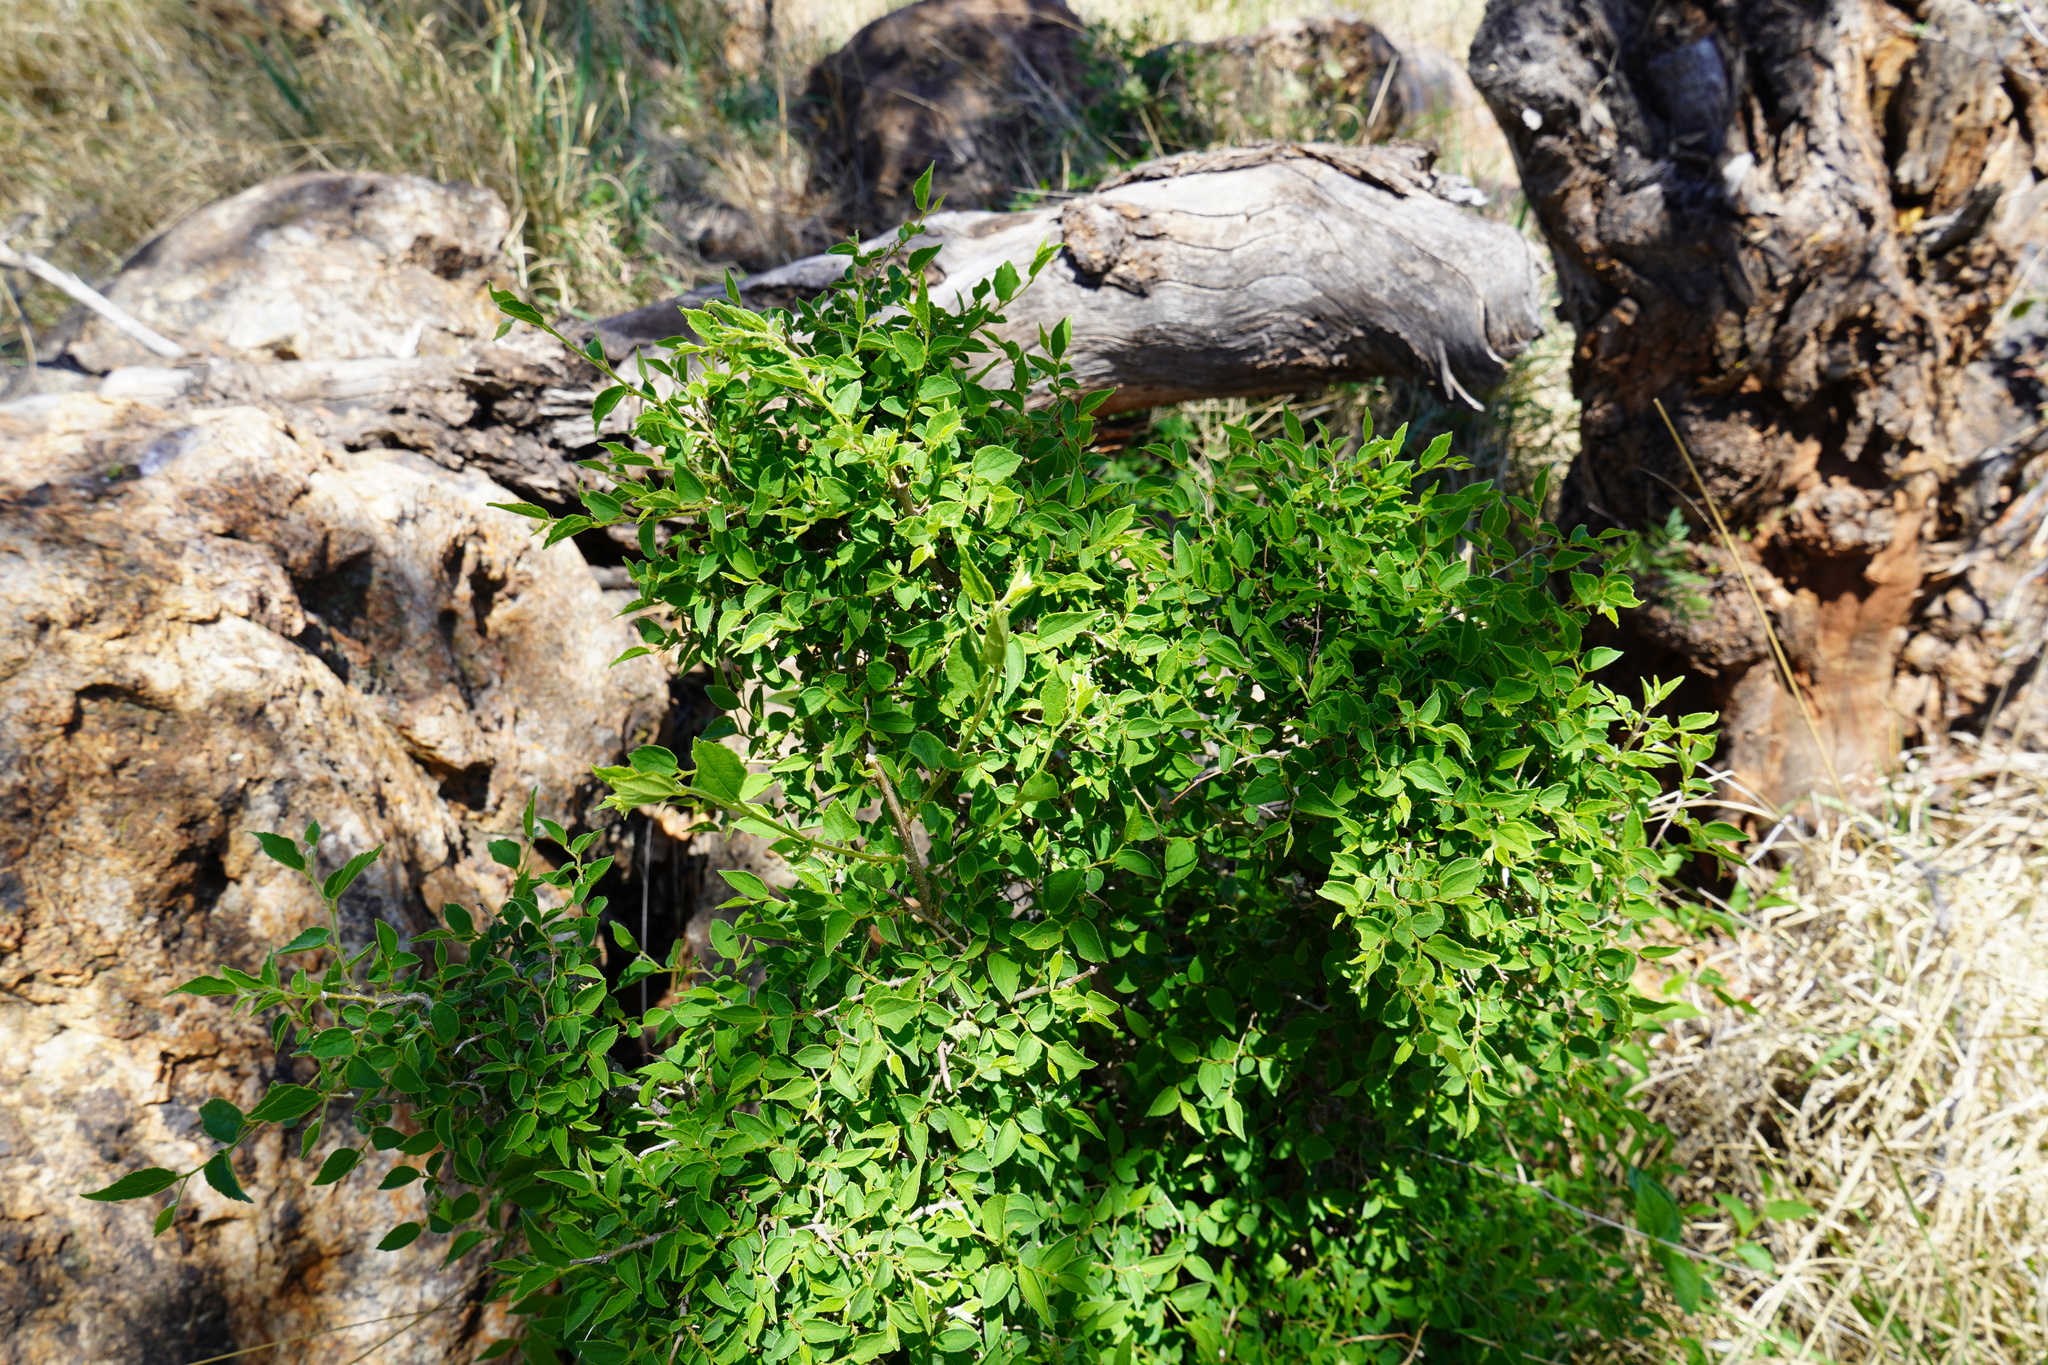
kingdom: Plantae
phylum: Tracheophyta
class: Magnoliopsida
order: Rosales
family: Cannabaceae
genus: Celtis
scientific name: Celtis africana
